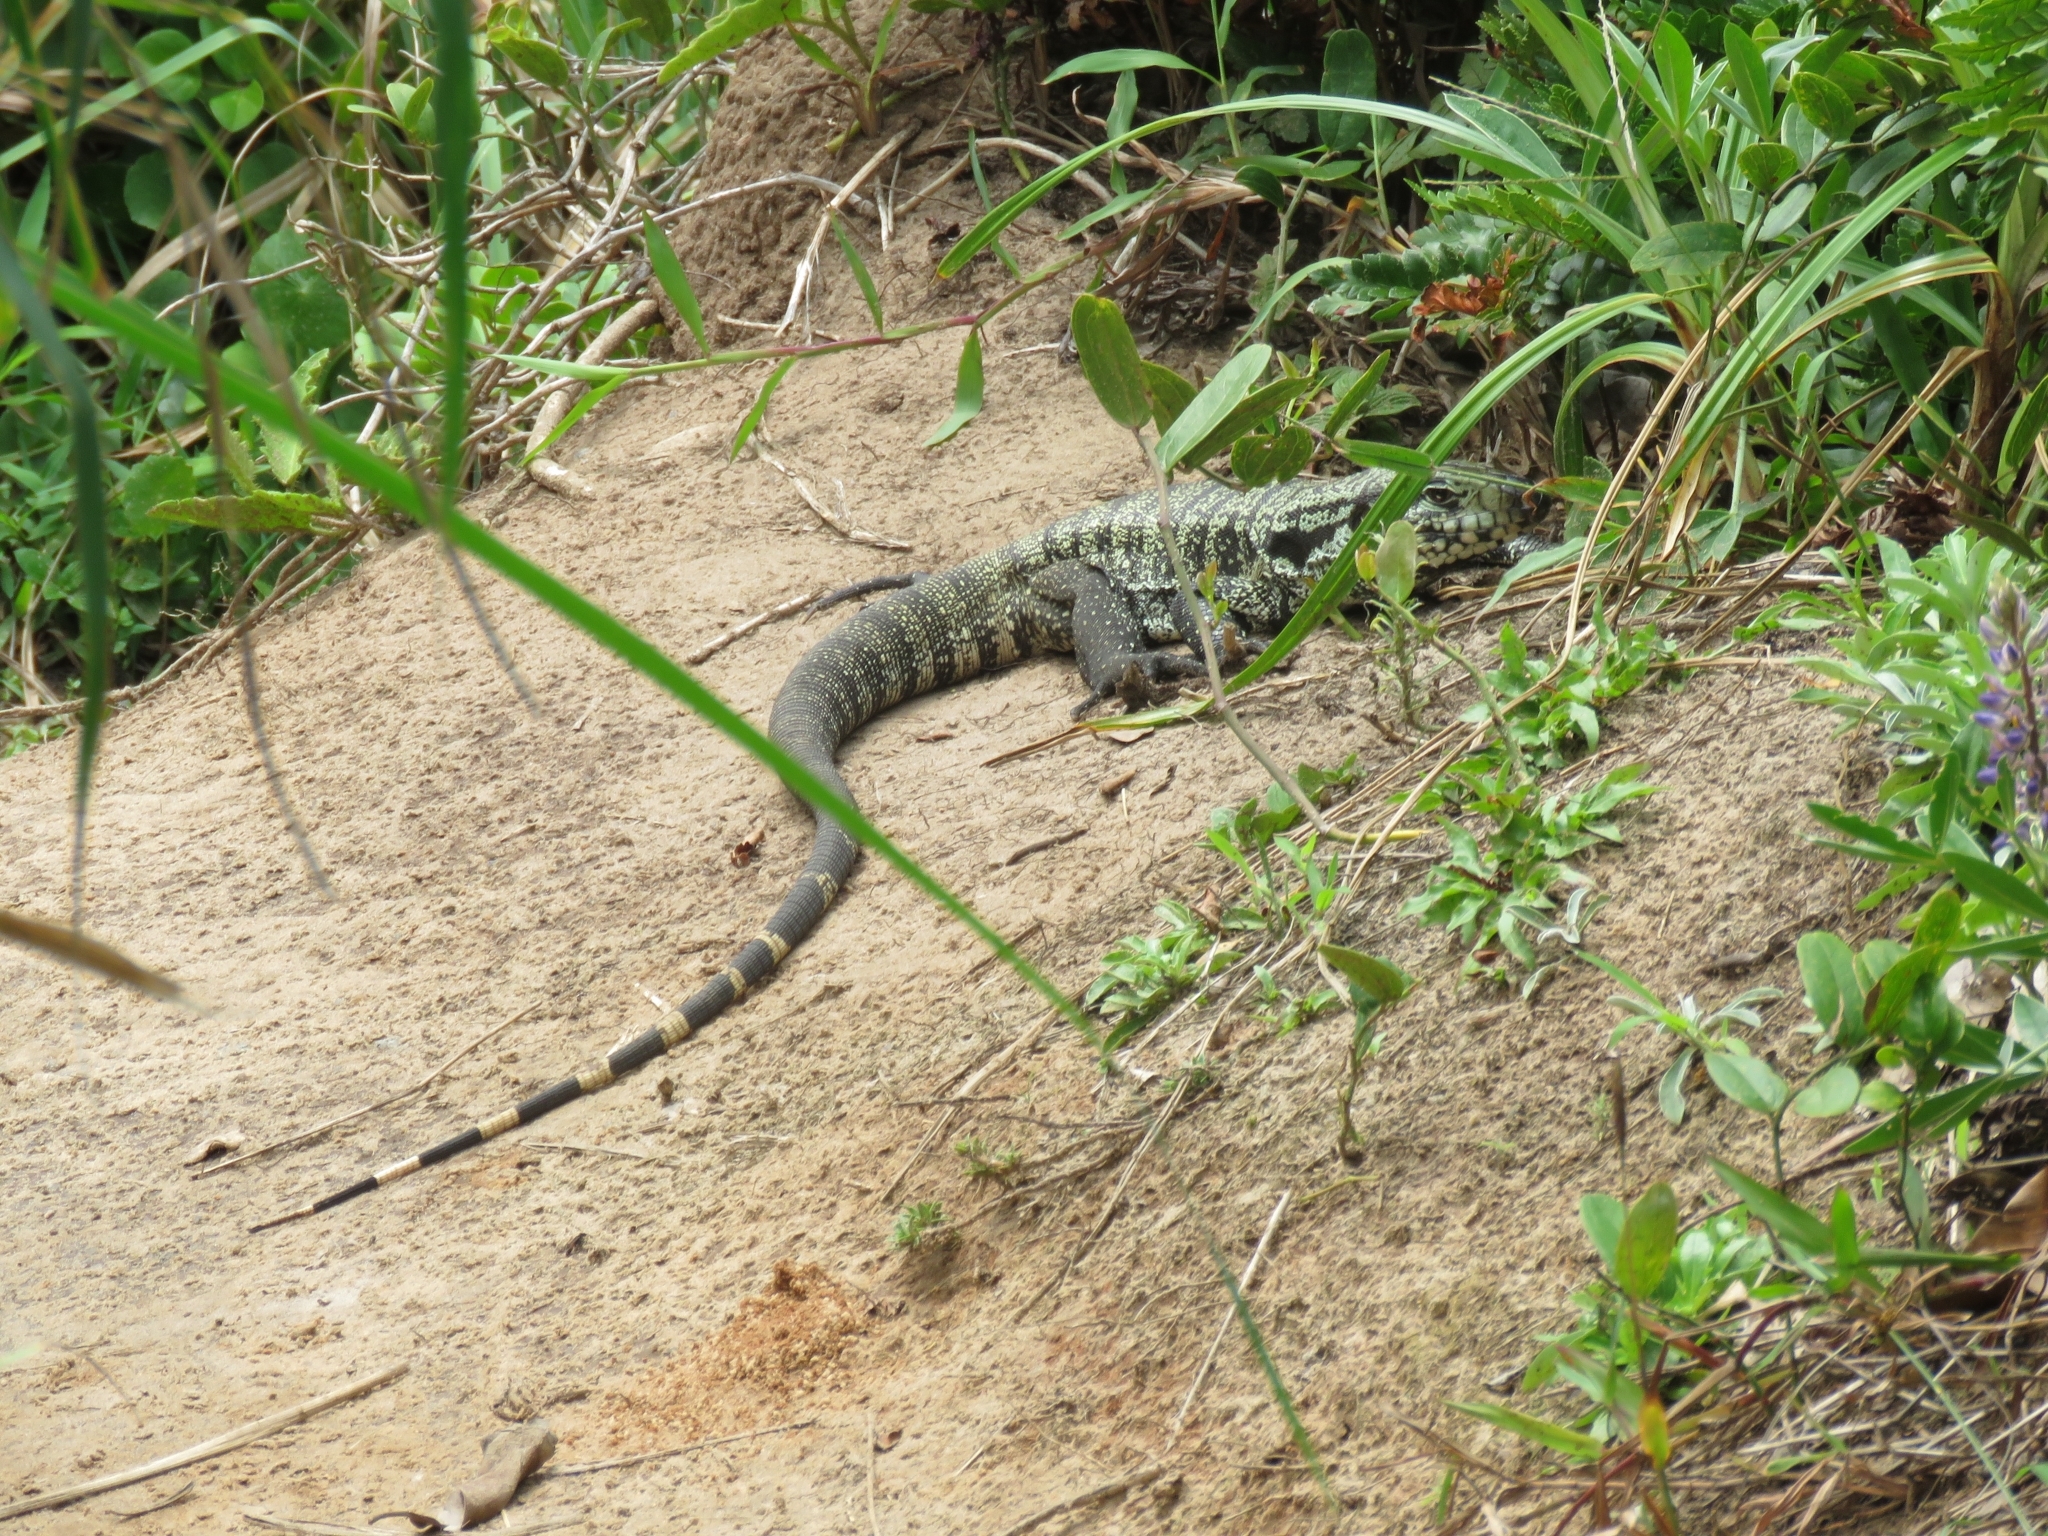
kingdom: Animalia
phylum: Chordata
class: Squamata
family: Teiidae
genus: Salvator
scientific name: Salvator merianae
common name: Argentine black and white tegu
